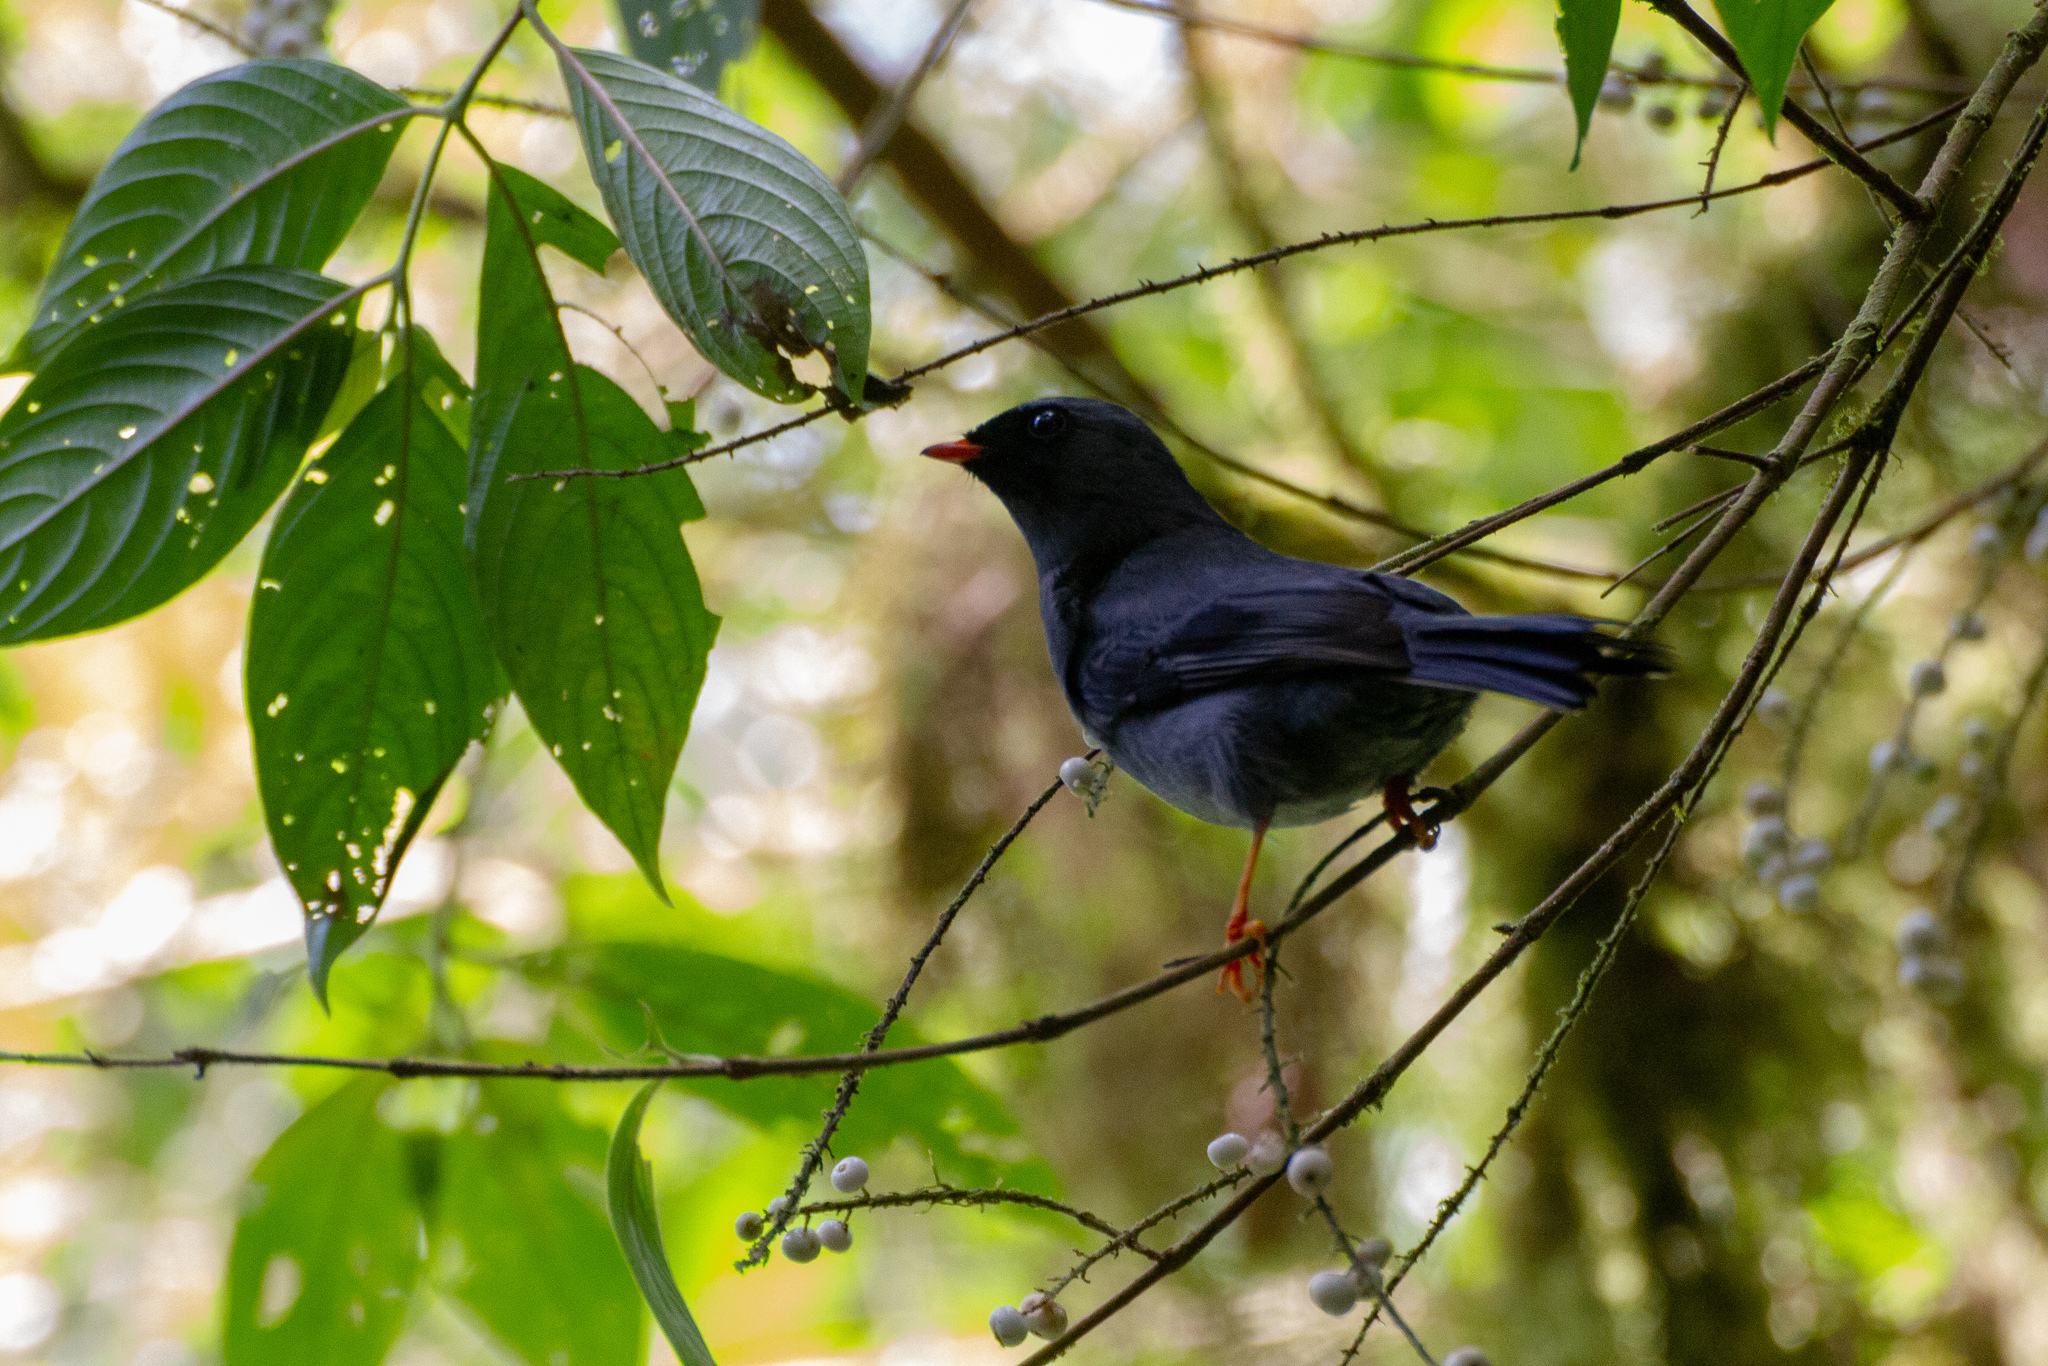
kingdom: Animalia
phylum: Chordata
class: Aves
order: Passeriformes
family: Turdidae
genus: Myadestes
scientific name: Myadestes melanops
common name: Black-faced solitaire
